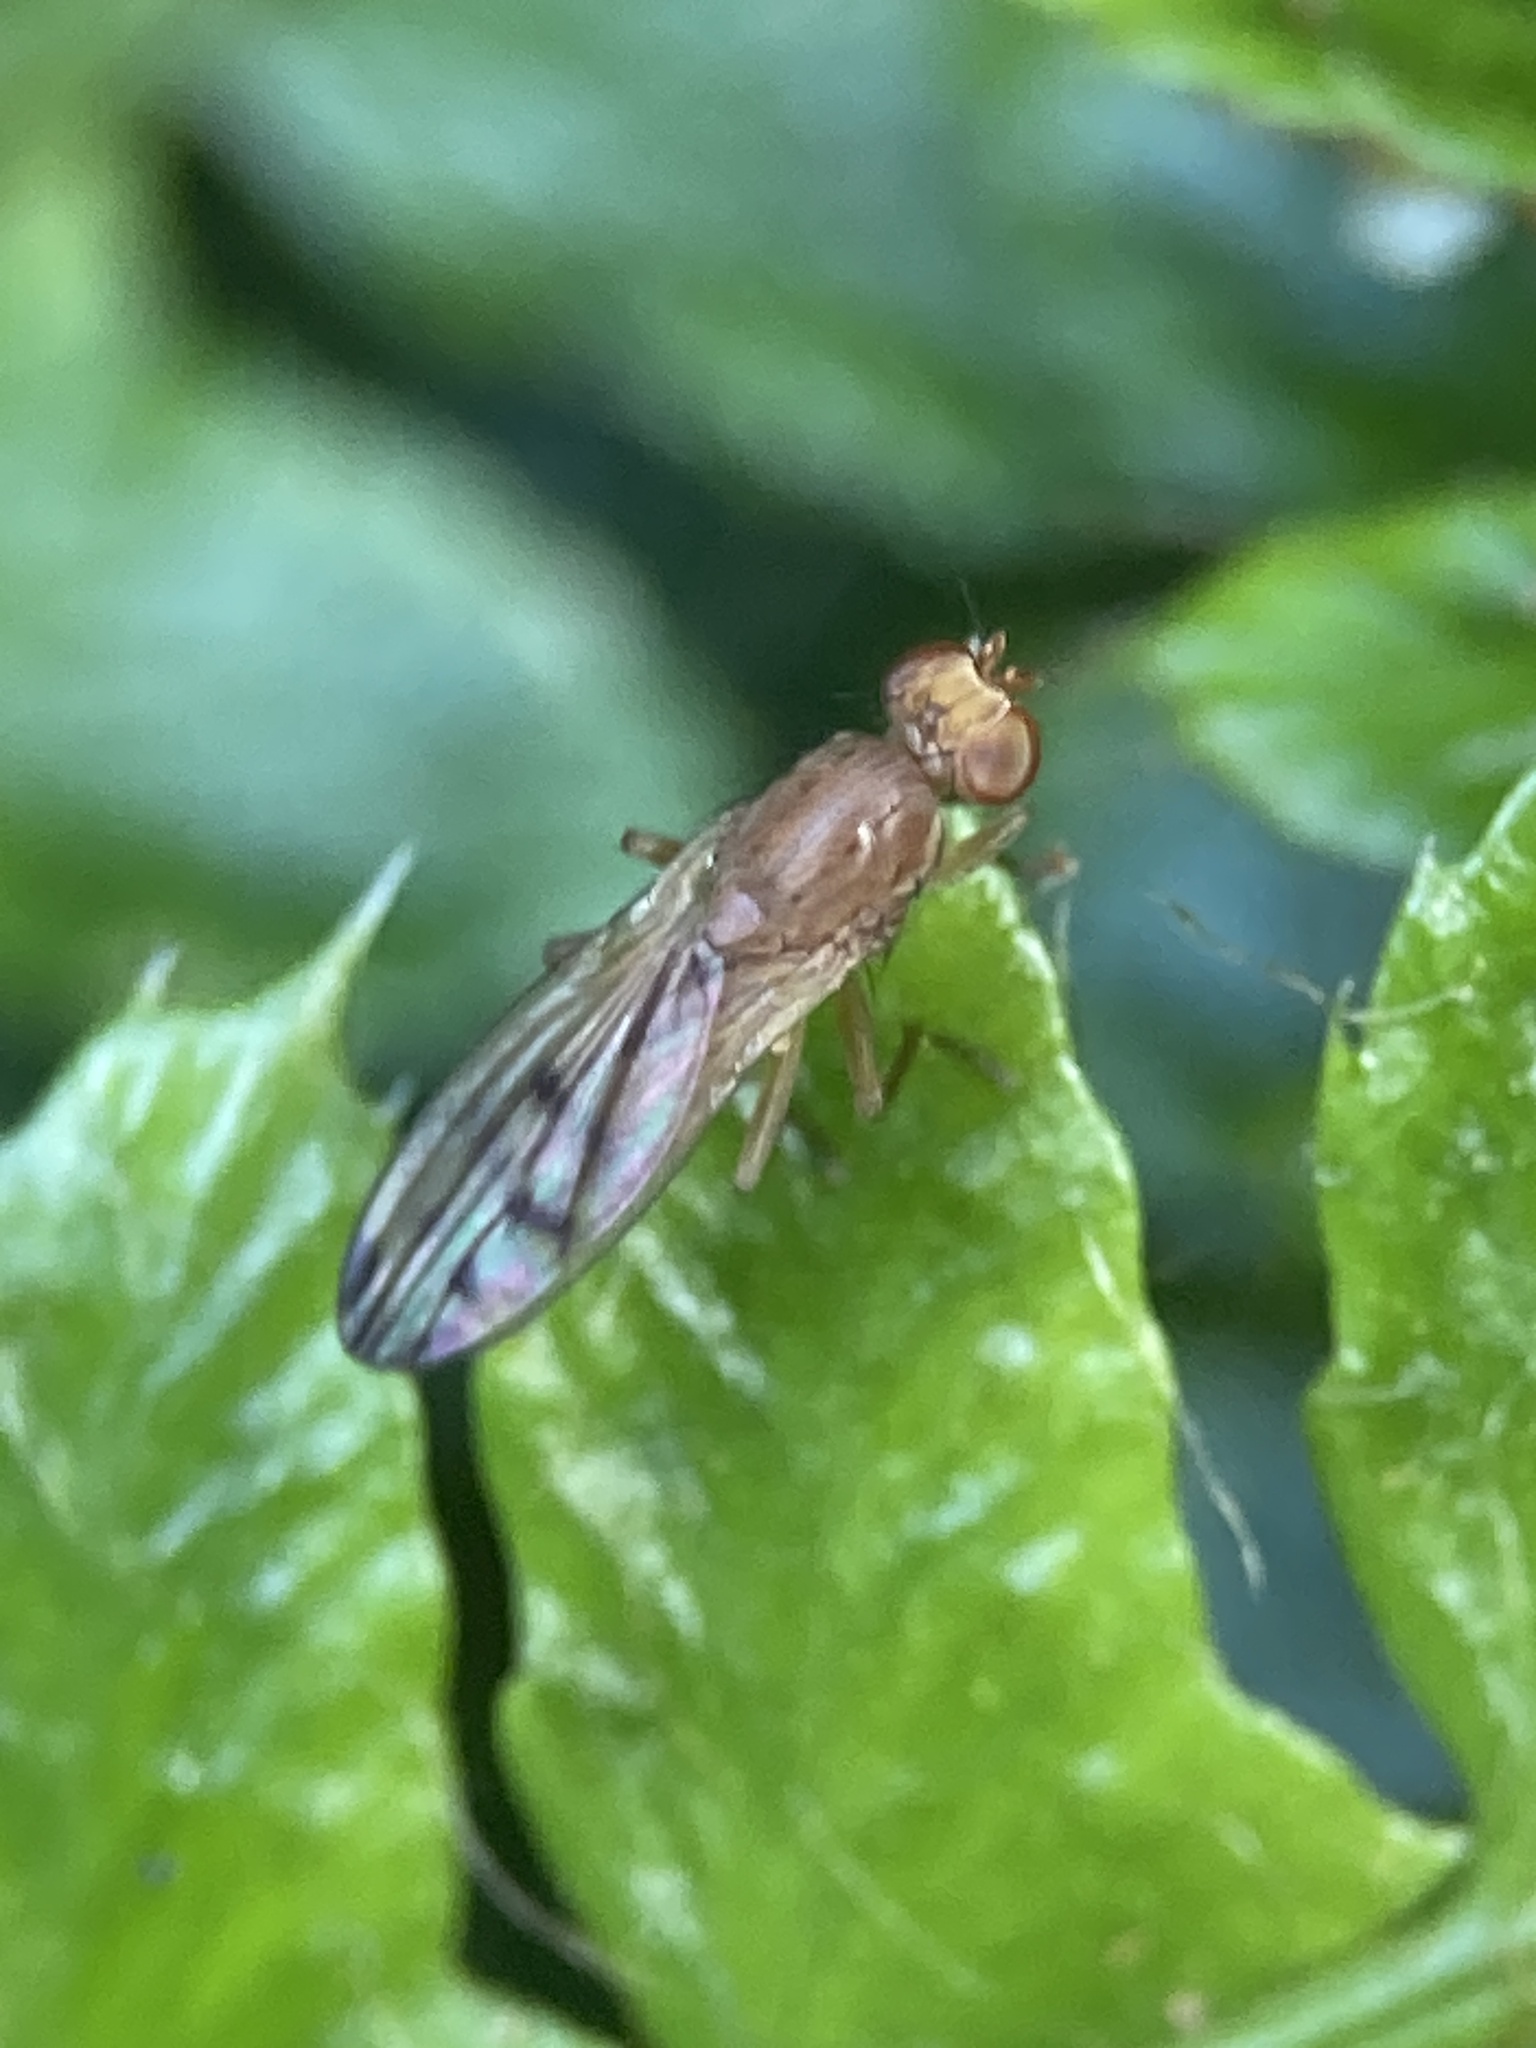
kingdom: Animalia
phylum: Arthropoda
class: Insecta
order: Diptera
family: Opomyzidae
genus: Opomyza
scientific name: Opomyza florum
